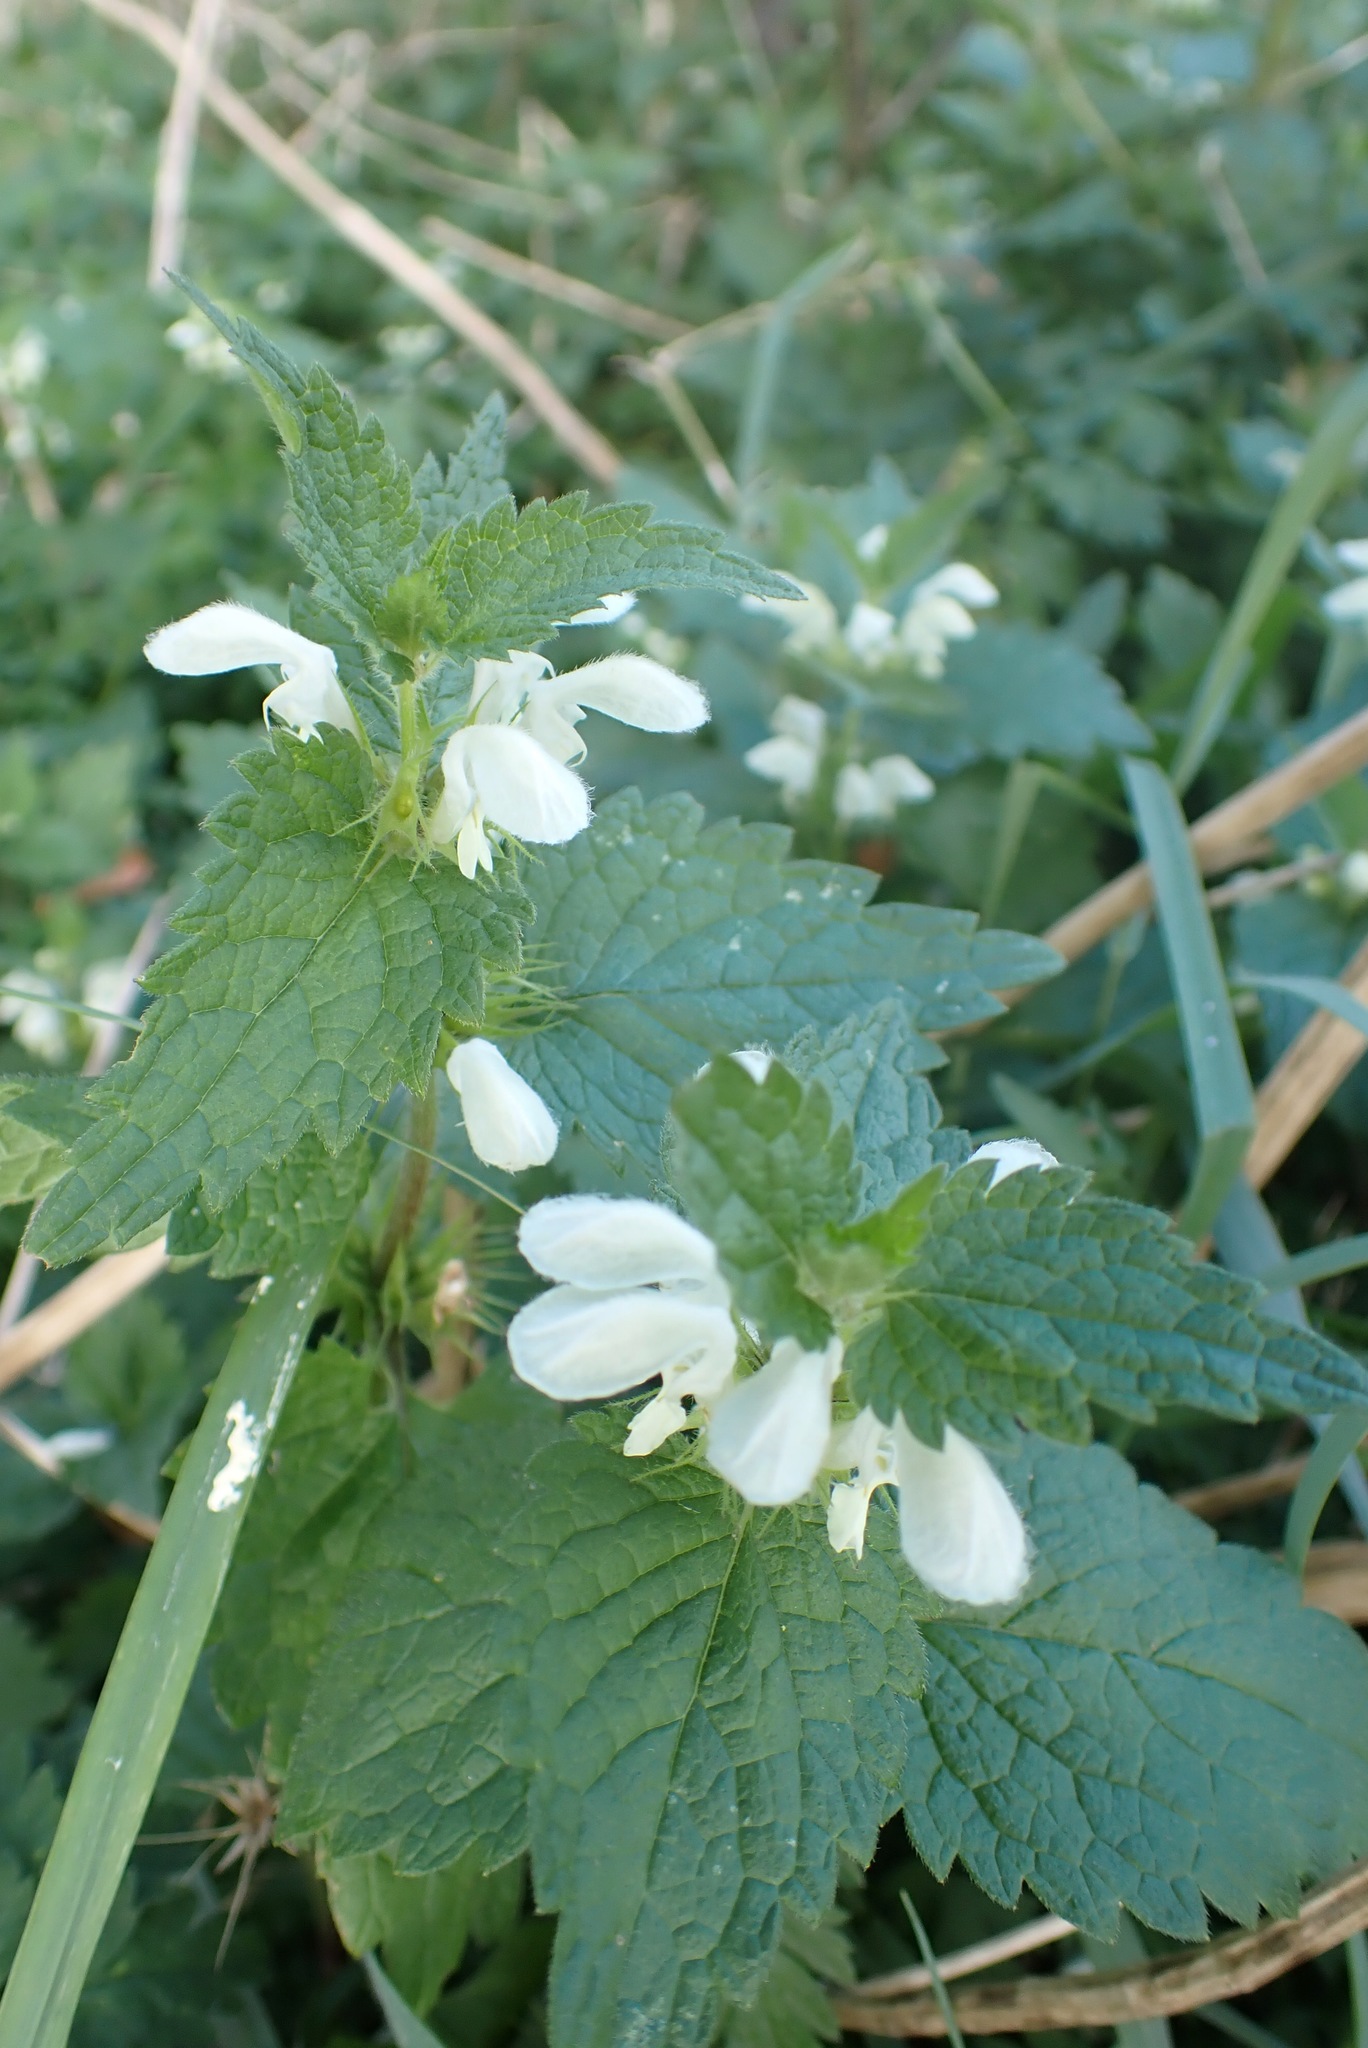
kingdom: Plantae
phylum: Tracheophyta
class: Magnoliopsida
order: Lamiales
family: Lamiaceae
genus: Lamium
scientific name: Lamium album
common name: White dead-nettle
